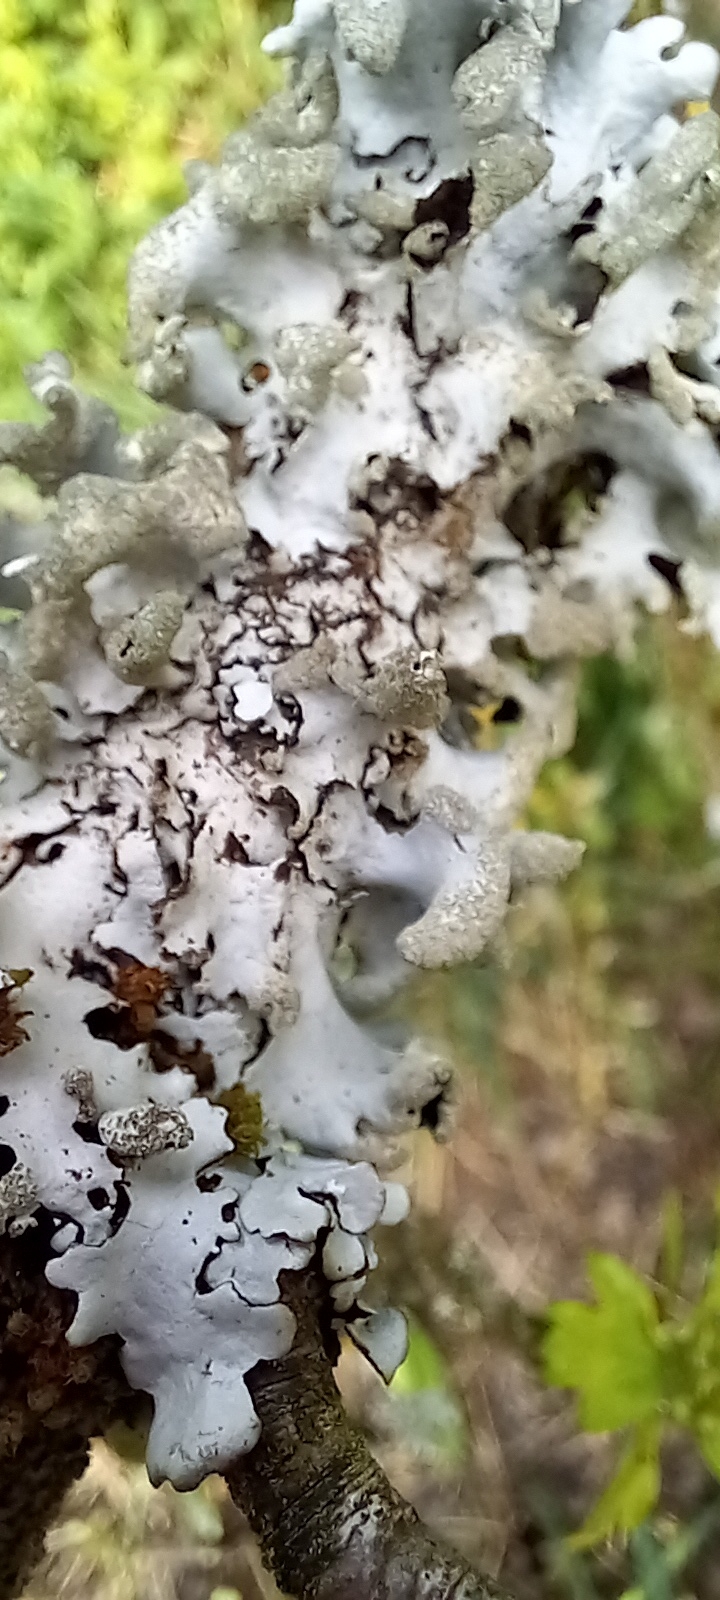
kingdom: Fungi
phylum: Ascomycota
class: Lecanoromycetes
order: Lecanorales
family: Parmeliaceae
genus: Hypotrachyna
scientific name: Hypotrachyna revoluta
